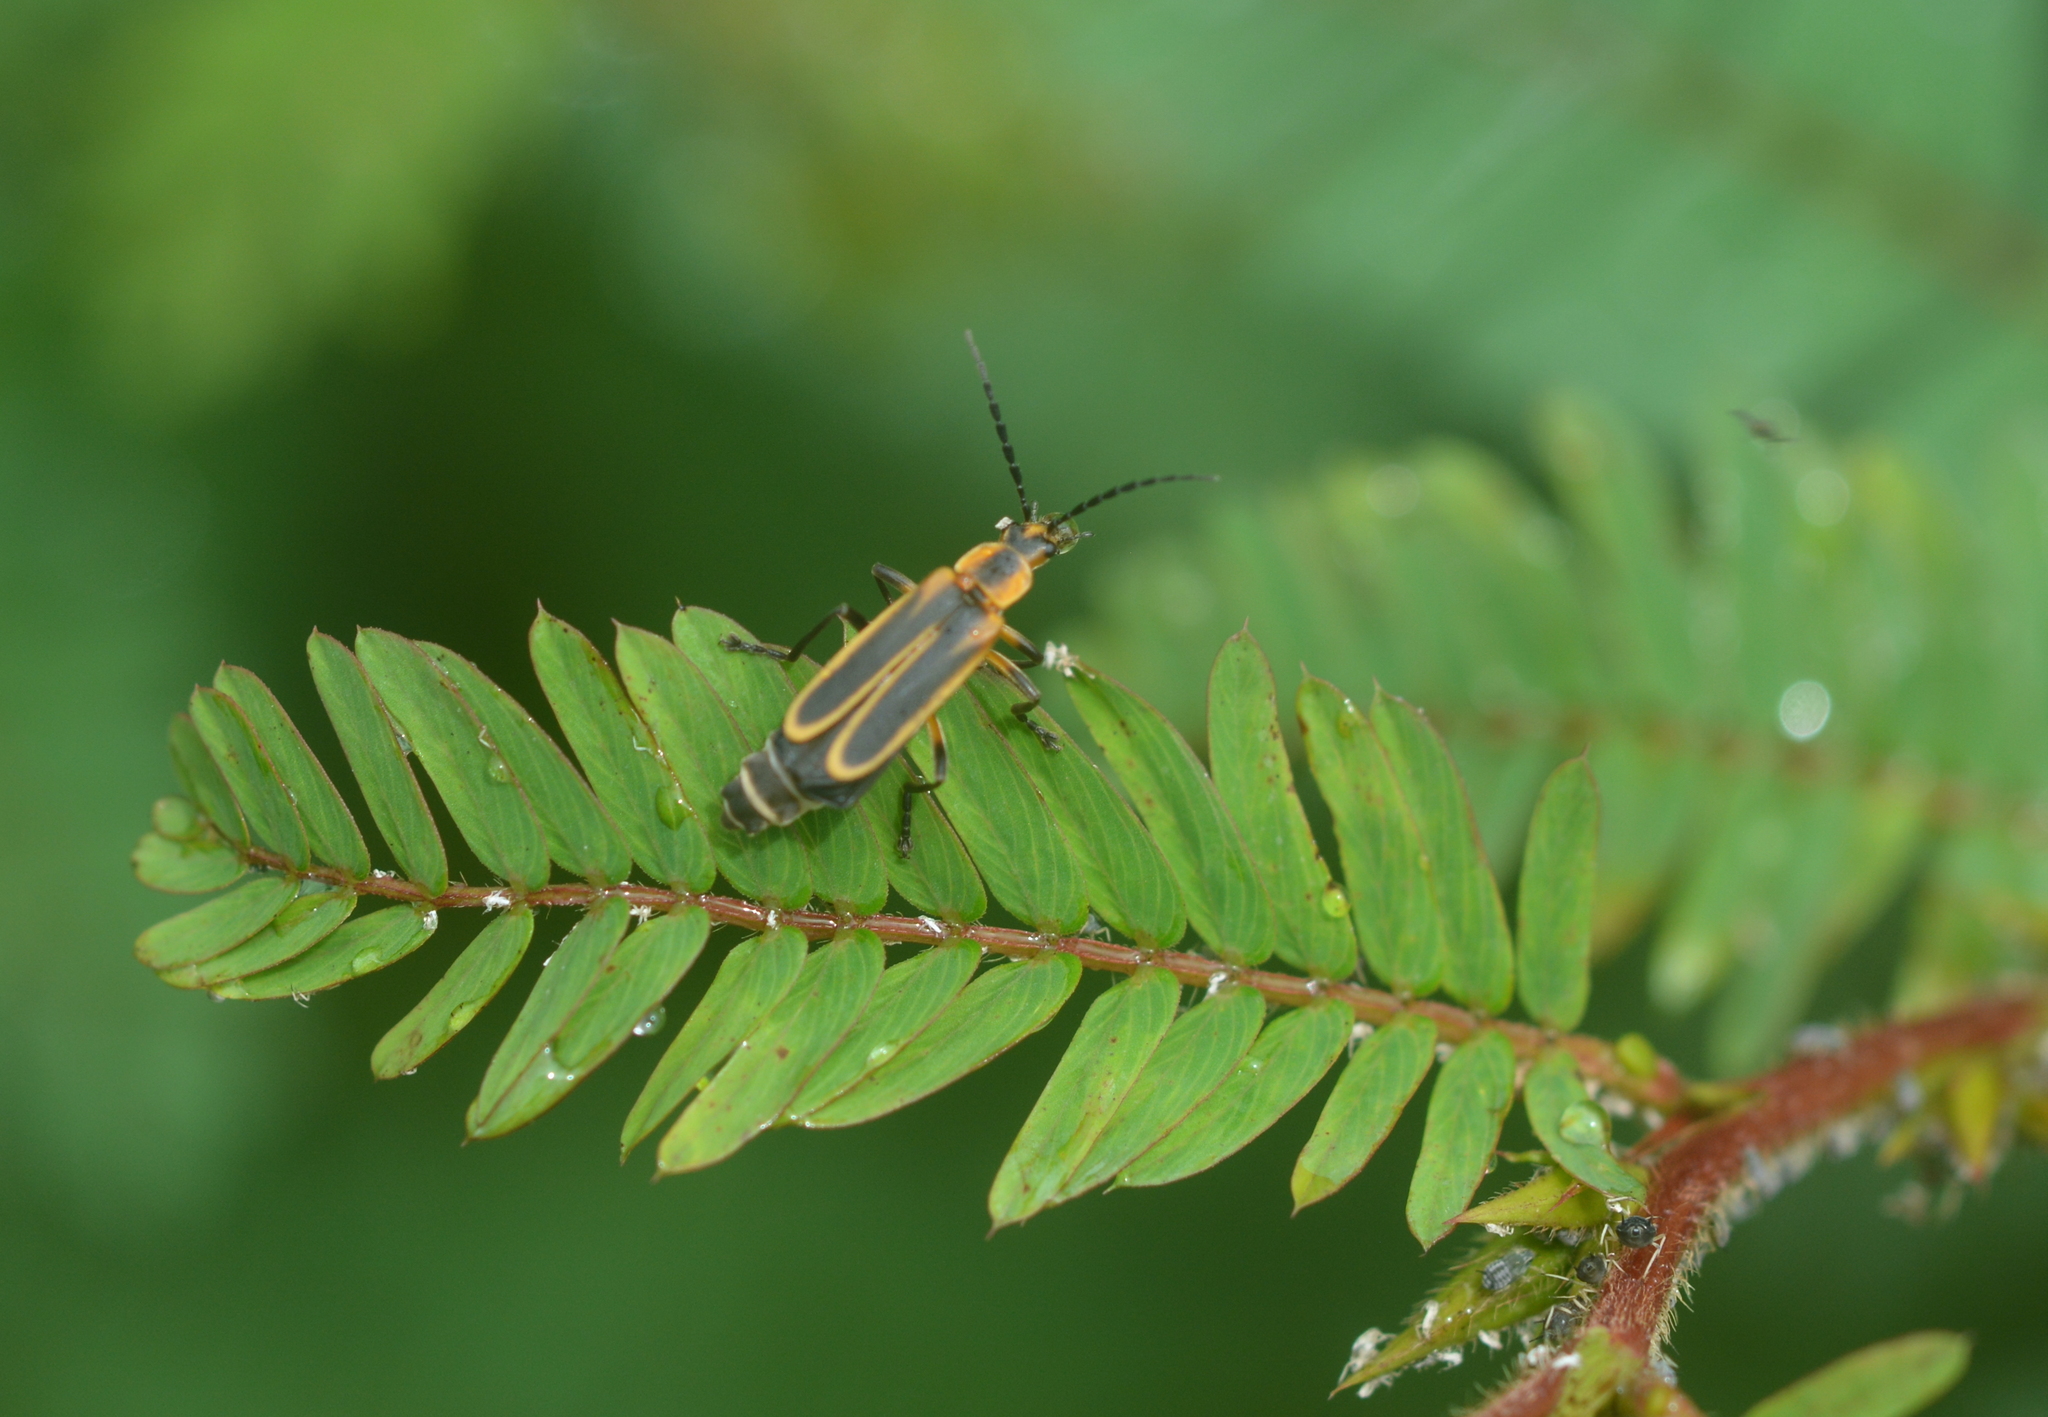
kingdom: Animalia
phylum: Arthropoda
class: Insecta
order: Coleoptera
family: Cantharidae
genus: Chauliognathus
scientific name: Chauliognathus marginatus
